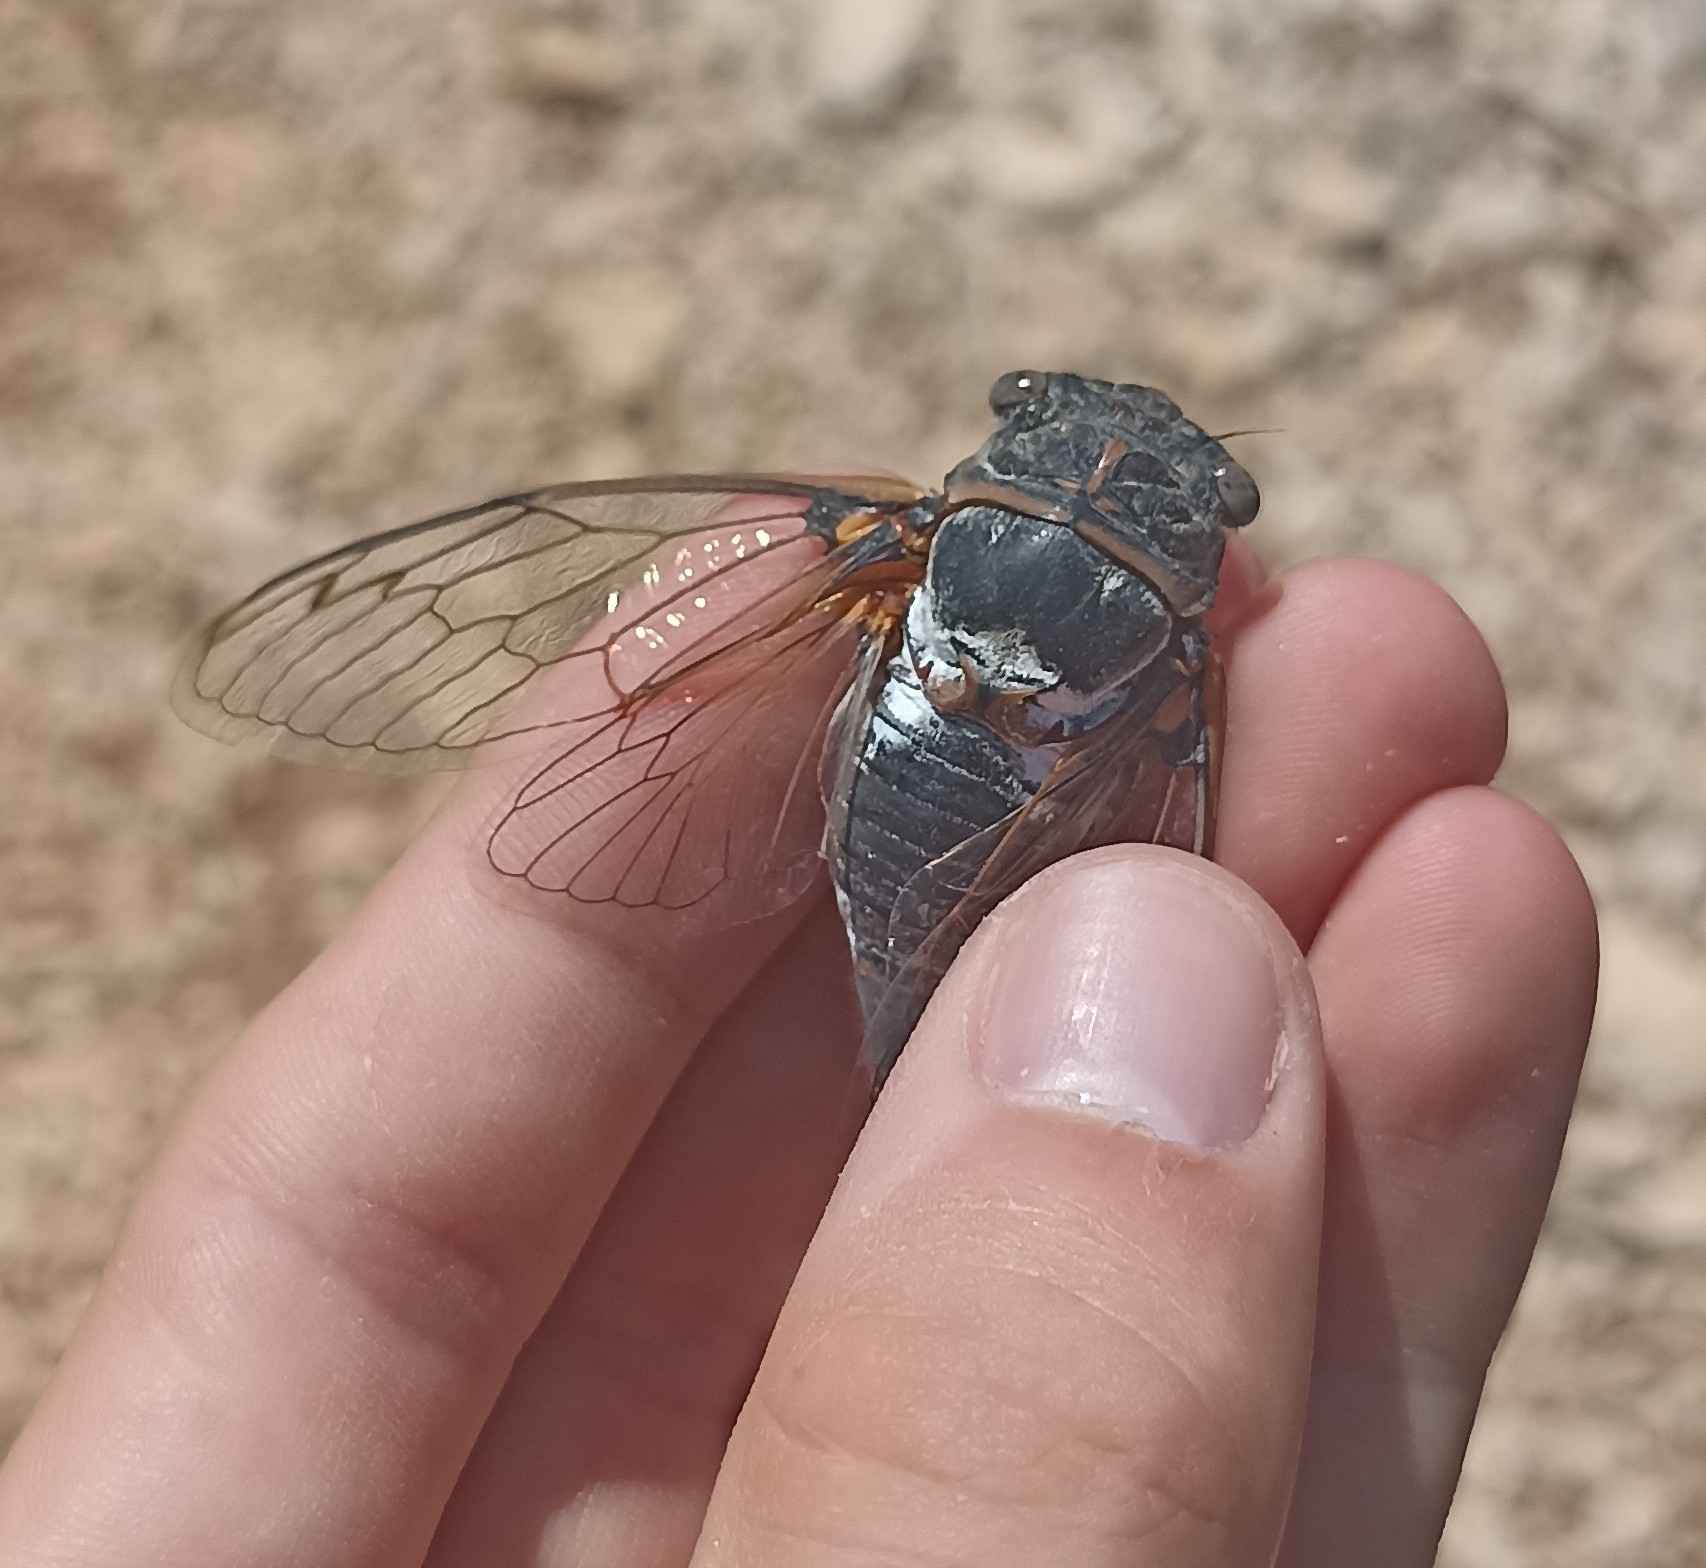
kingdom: Animalia
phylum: Arthropoda
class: Insecta
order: Hemiptera
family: Cicadidae
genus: Lyristes
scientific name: Lyristes plebejus
